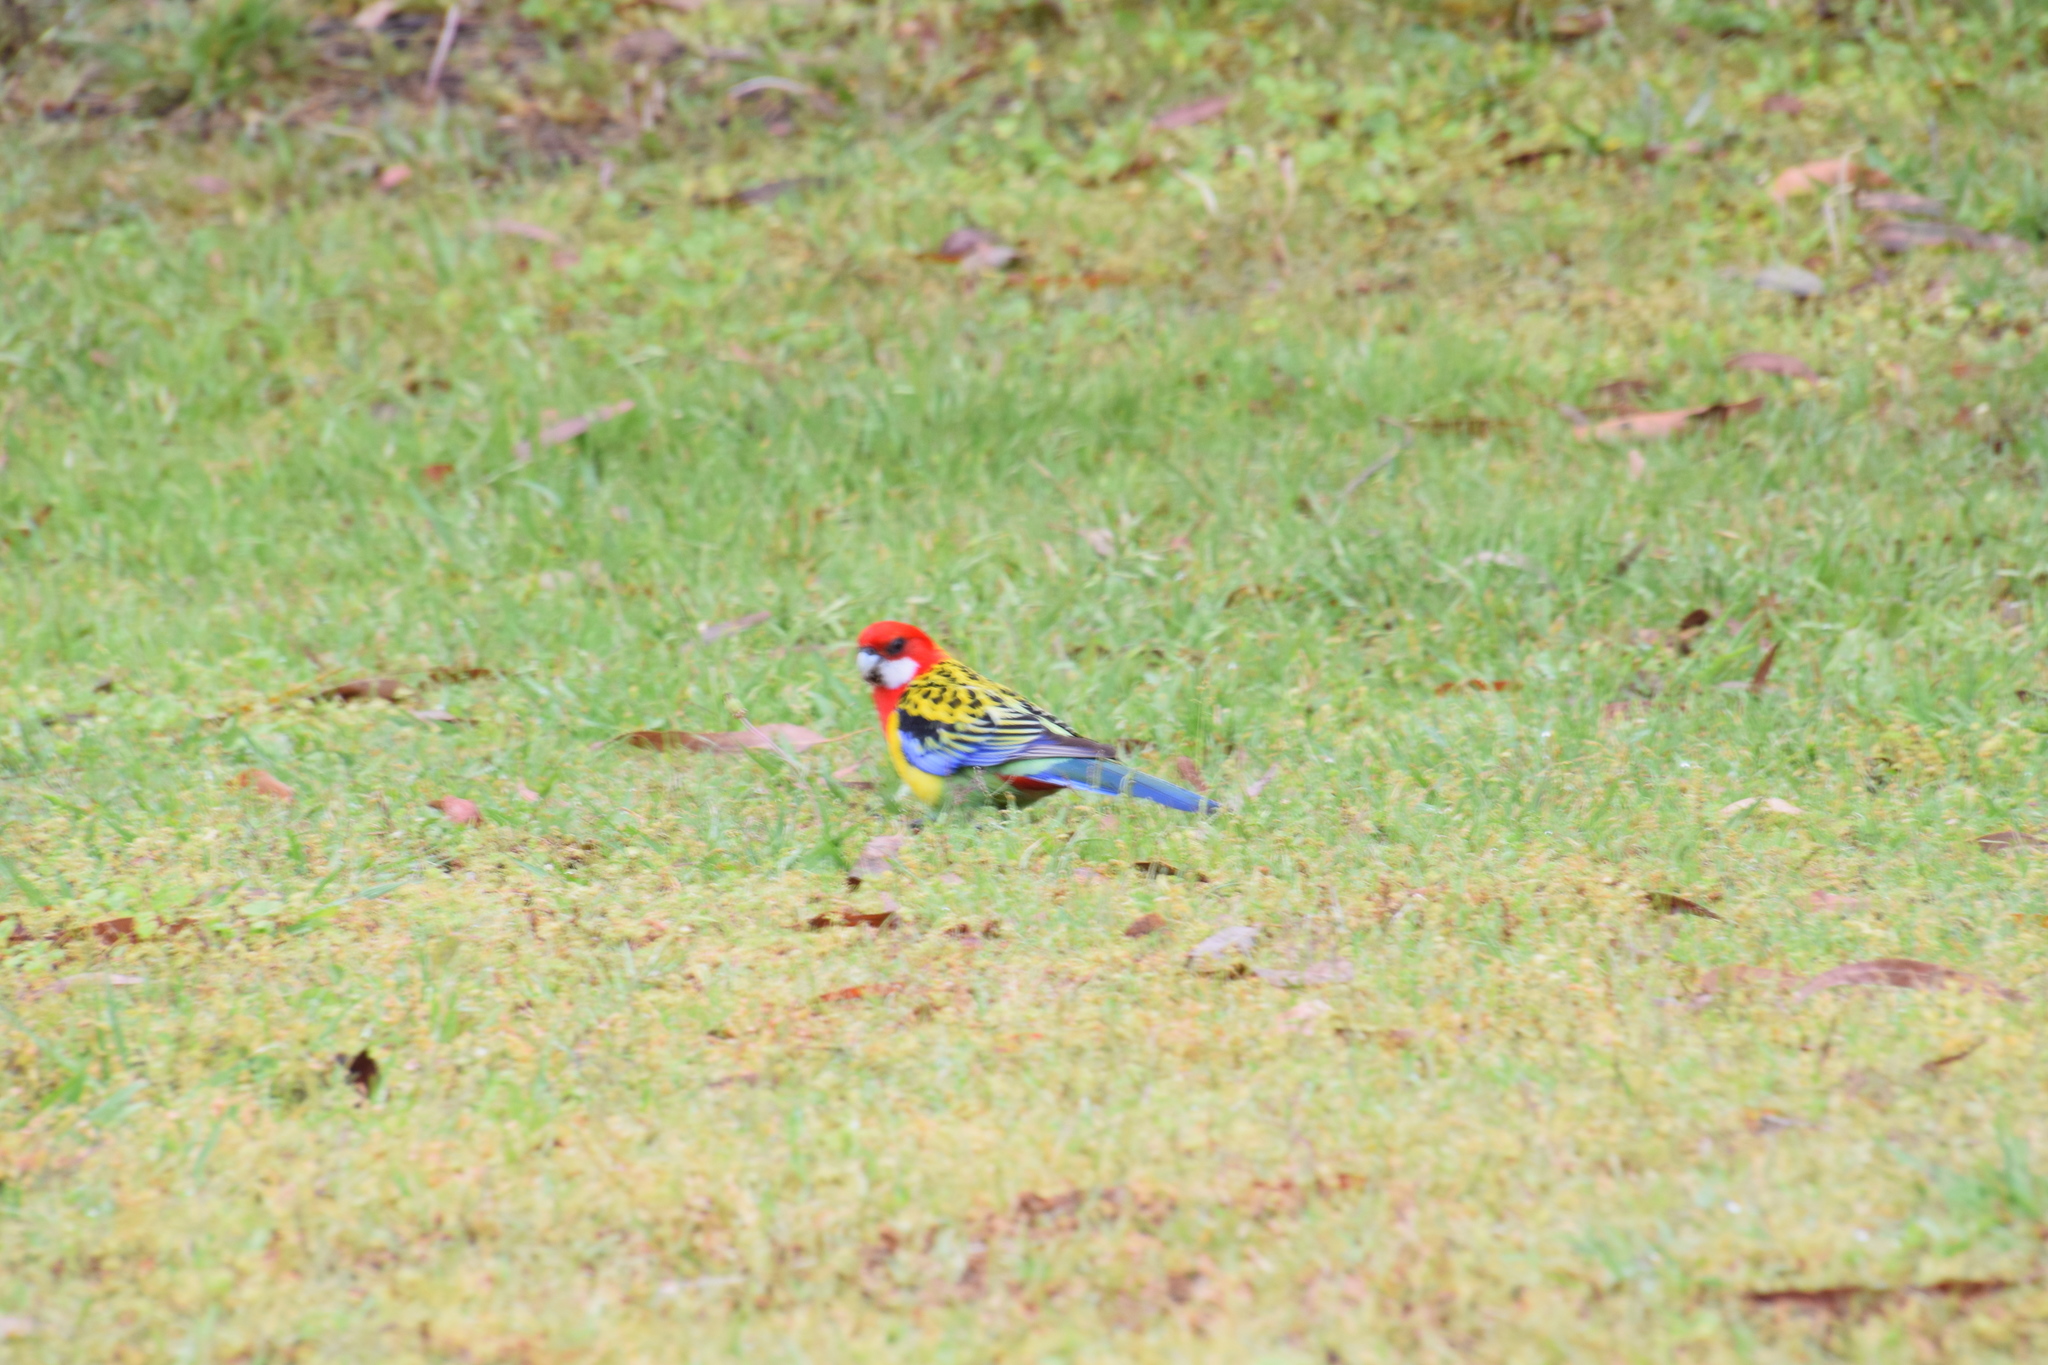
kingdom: Animalia
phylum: Chordata
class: Aves
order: Psittaciformes
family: Psittacidae
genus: Platycercus
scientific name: Platycercus eximius
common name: Eastern rosella
